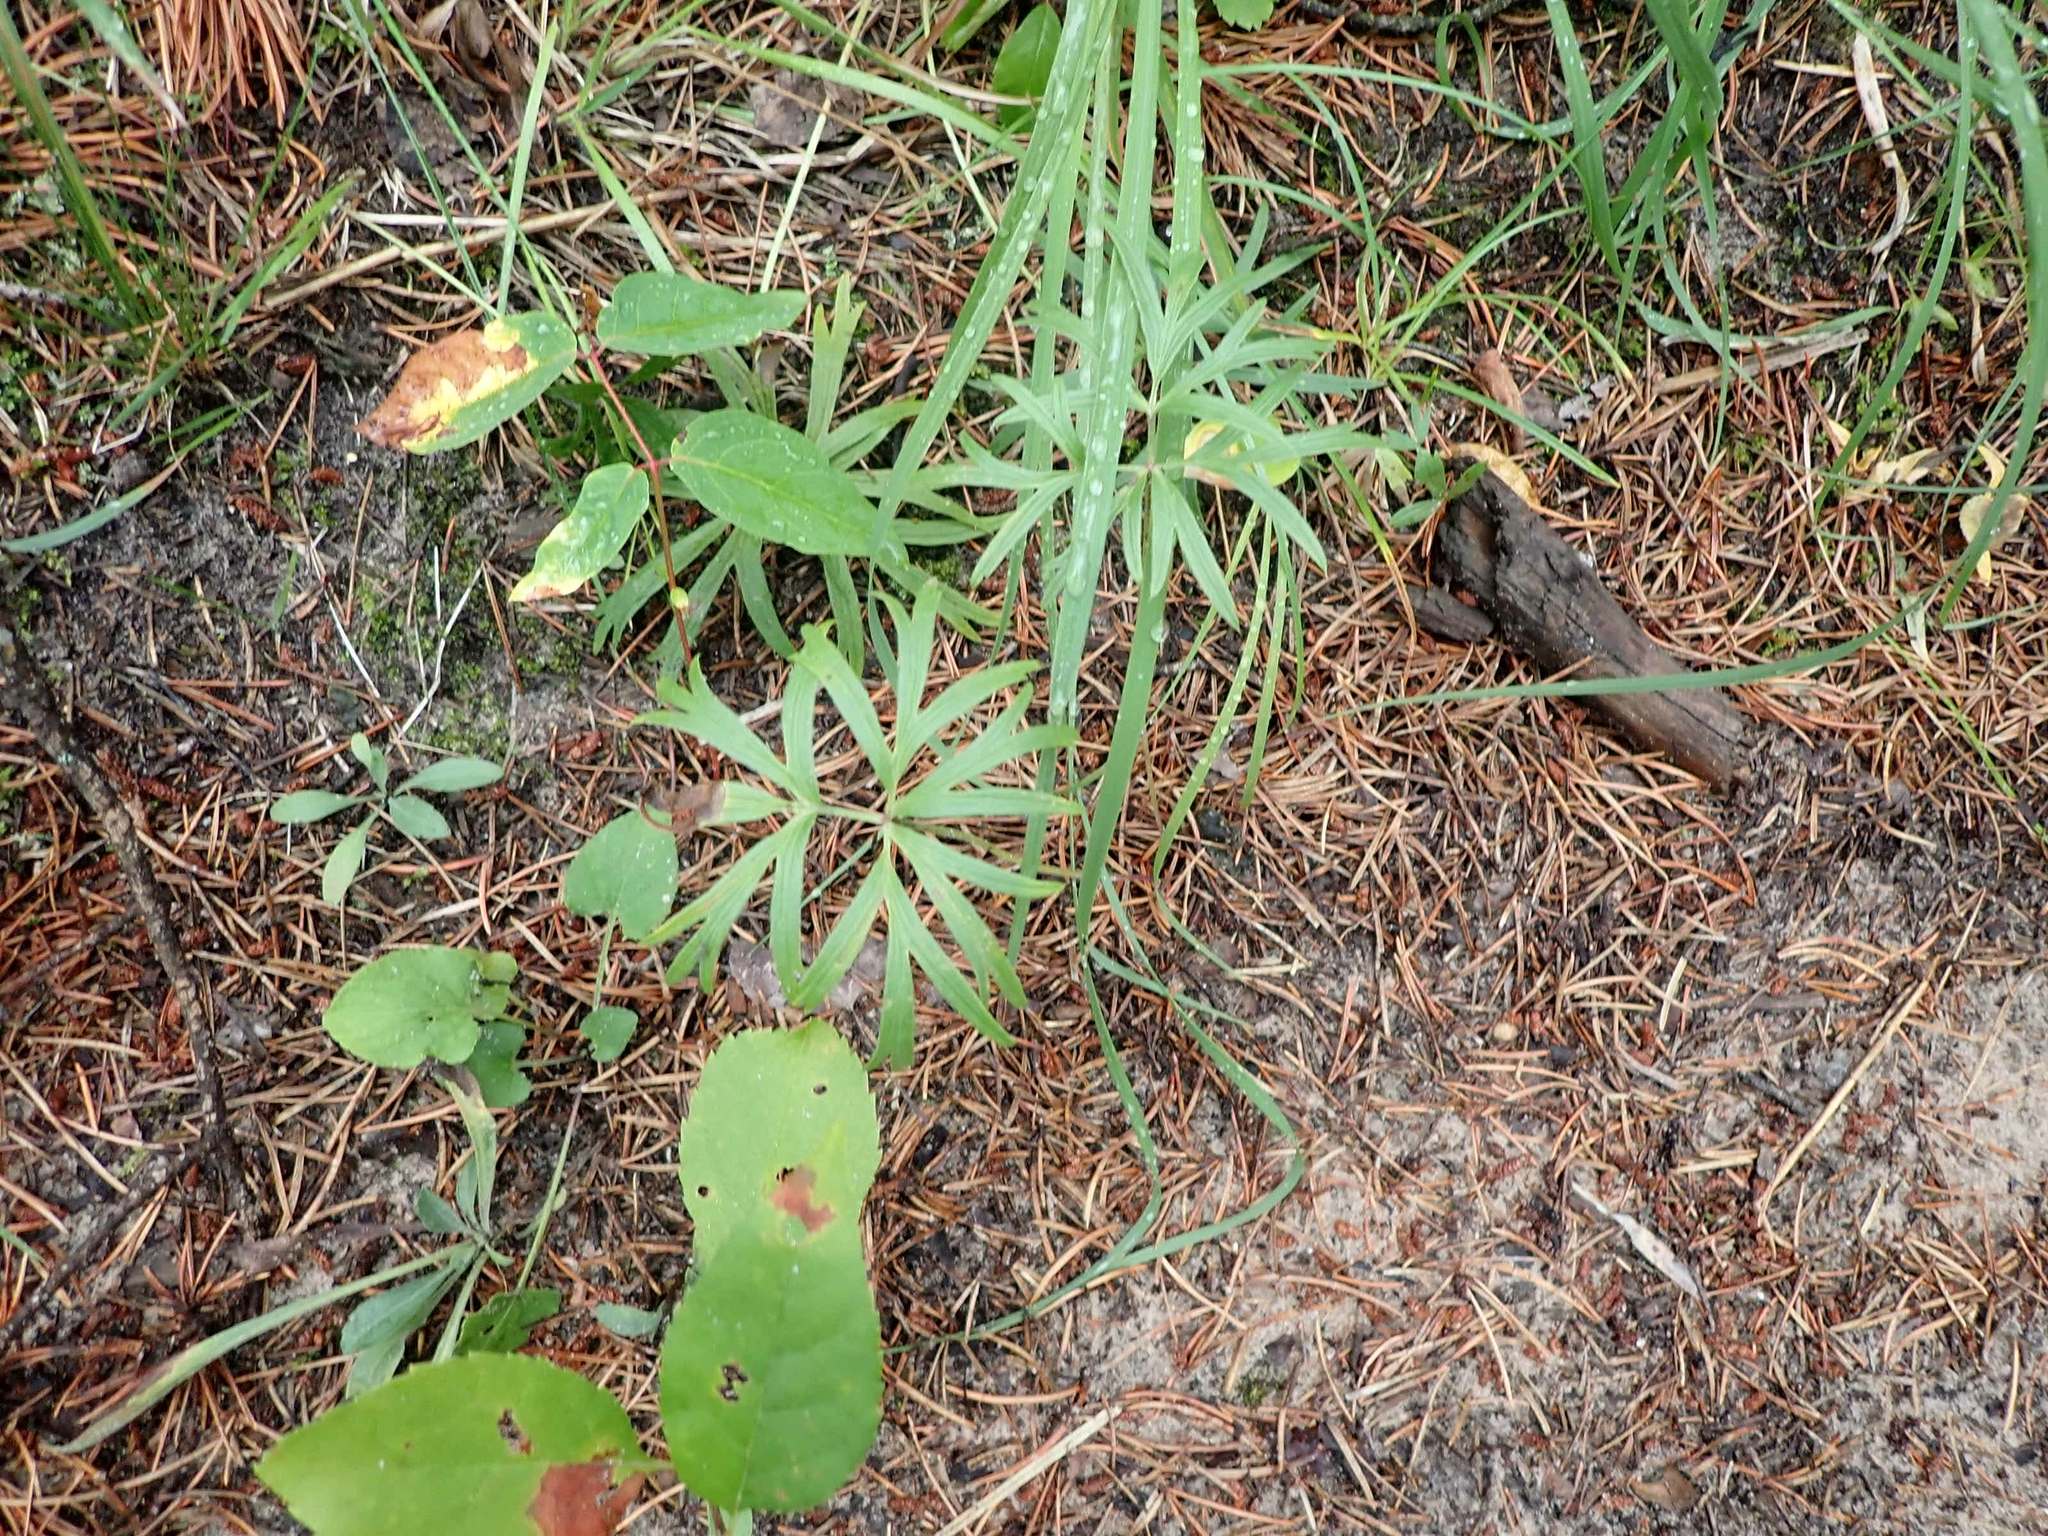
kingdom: Plantae
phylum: Tracheophyta
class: Magnoliopsida
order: Ranunculales
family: Ranunculaceae
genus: Pulsatilla
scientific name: Pulsatilla nuttalliana
